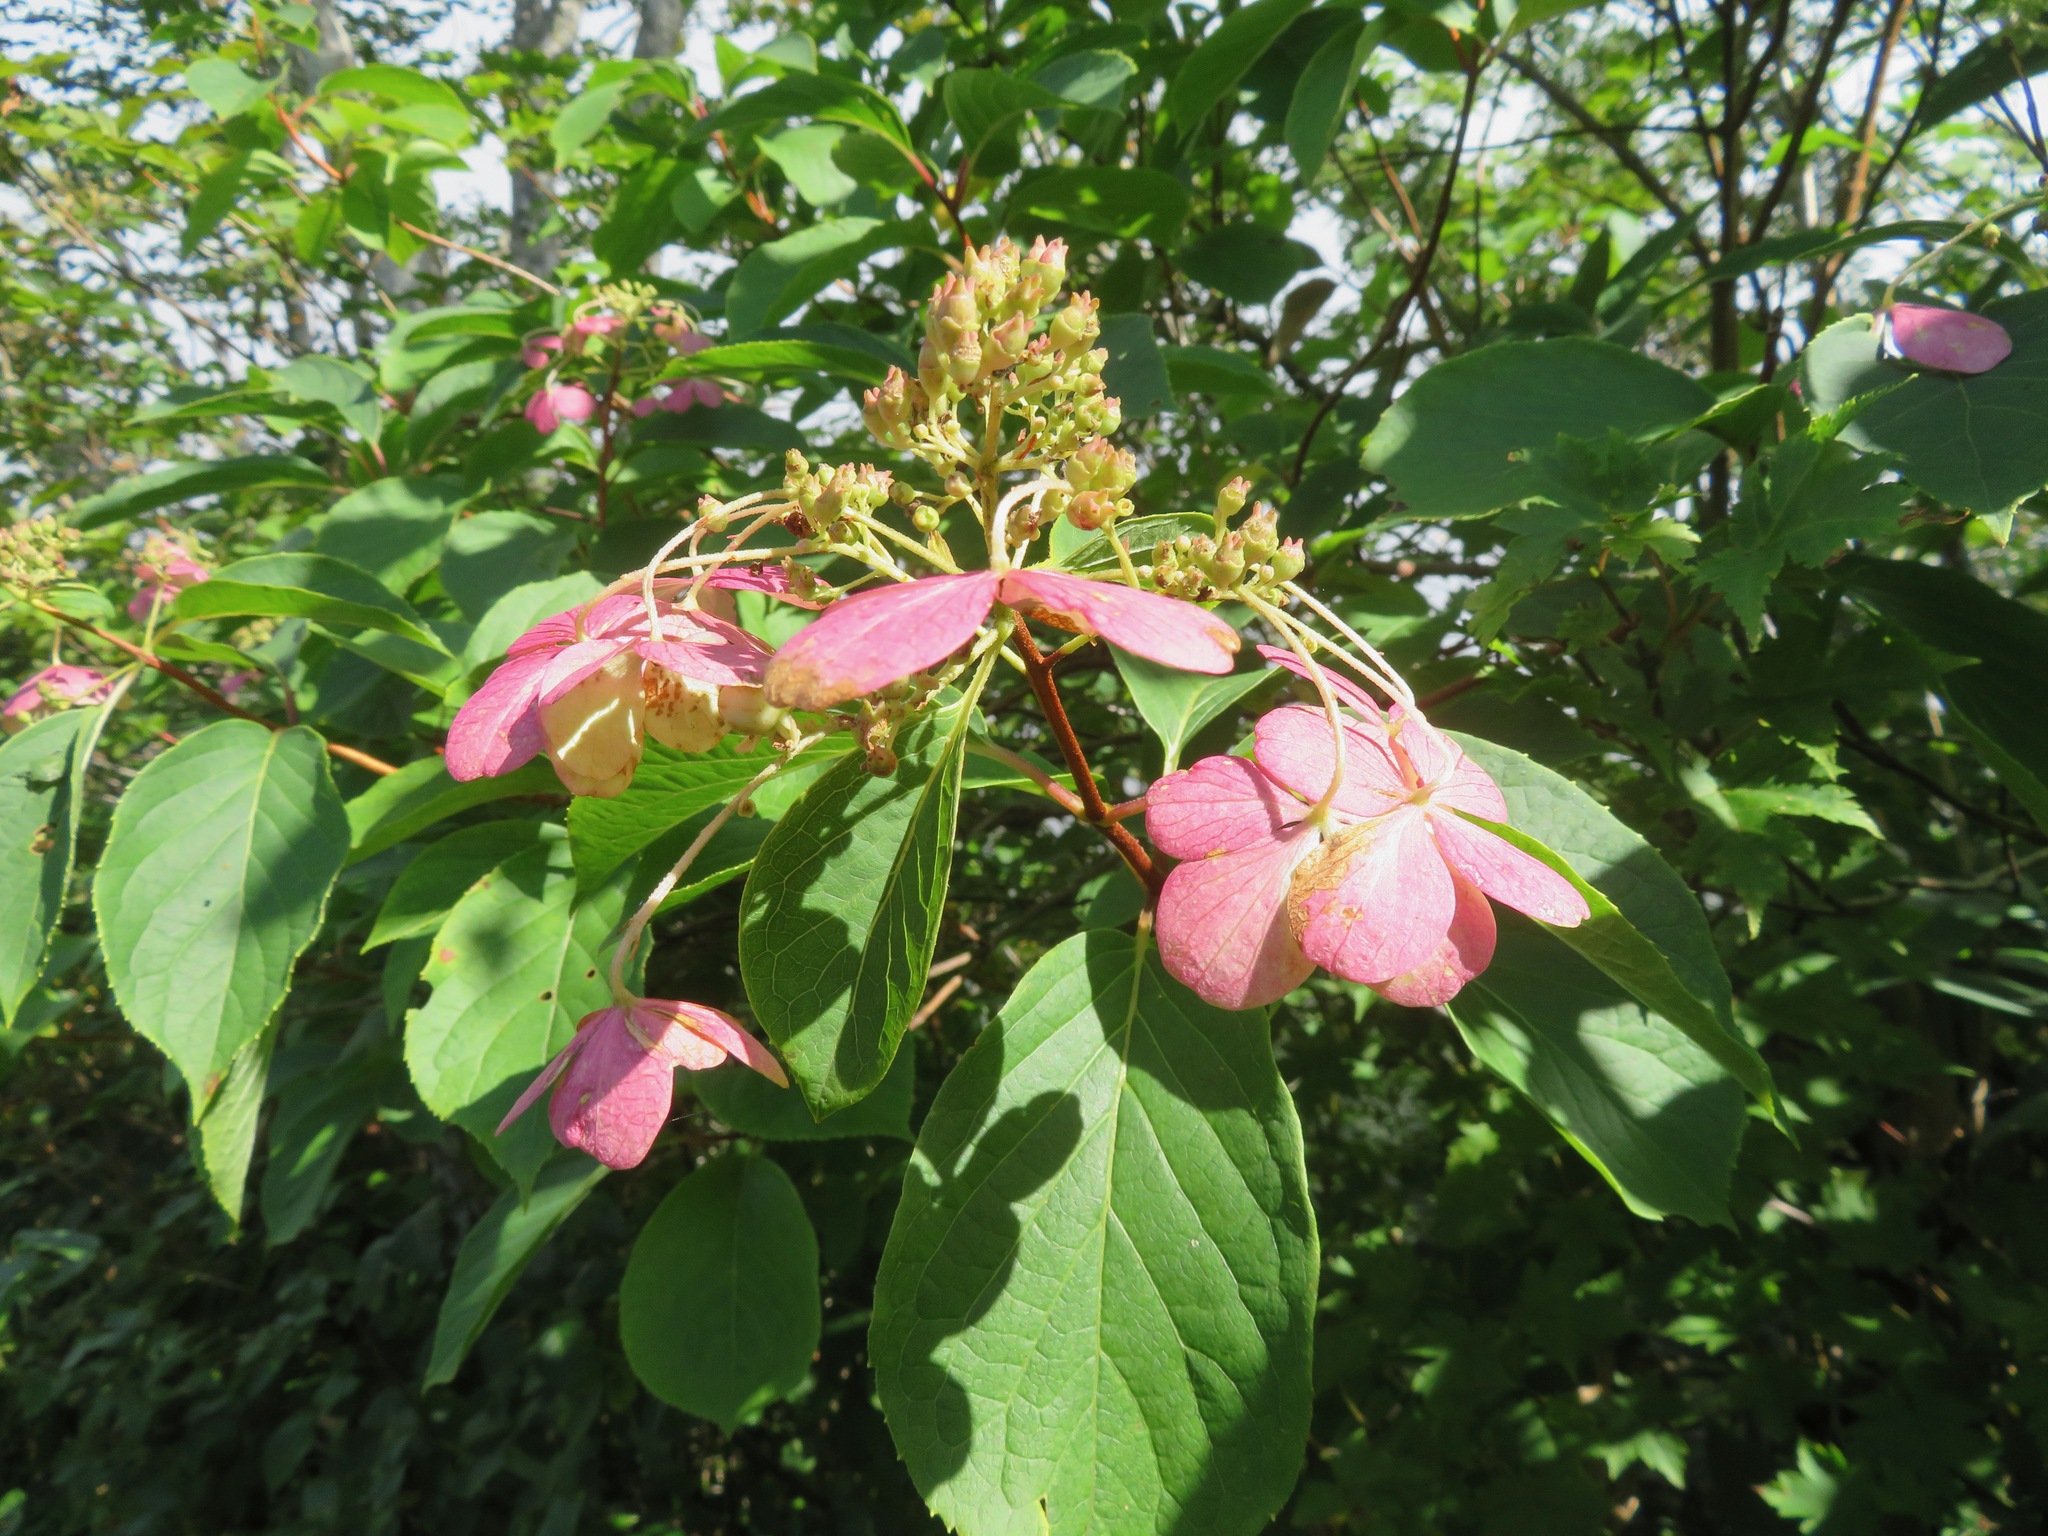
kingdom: Plantae
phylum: Tracheophyta
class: Magnoliopsida
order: Cornales
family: Hydrangeaceae
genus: Hydrangea
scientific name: Hydrangea paniculata
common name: Panicled hydrangea
